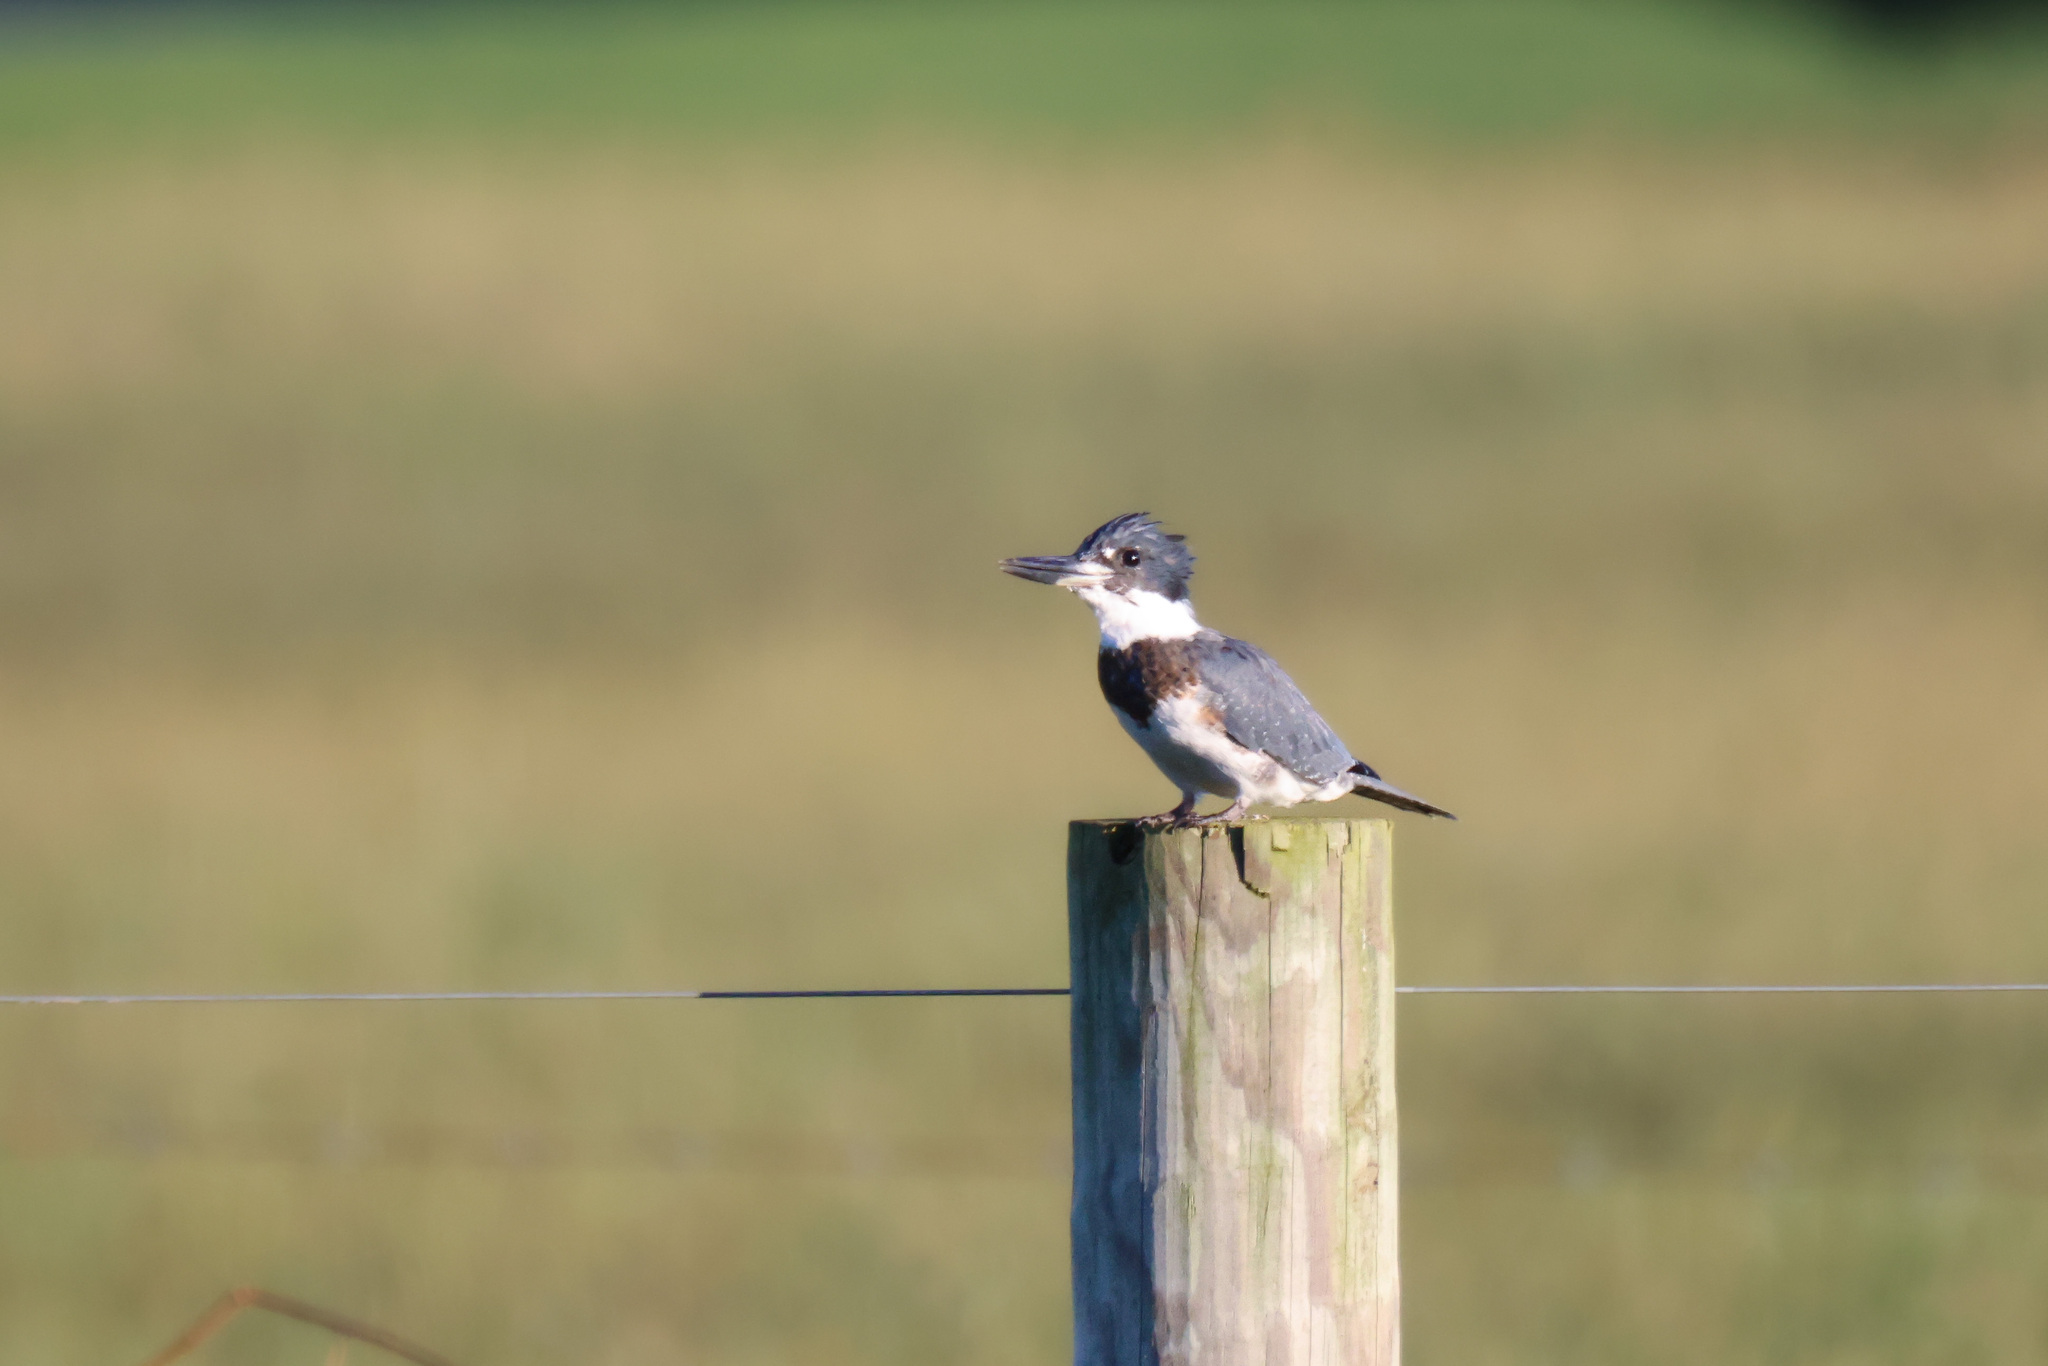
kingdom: Animalia
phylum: Chordata
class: Aves
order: Coraciiformes
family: Alcedinidae
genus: Megaceryle
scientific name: Megaceryle alcyon
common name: Belted kingfisher
